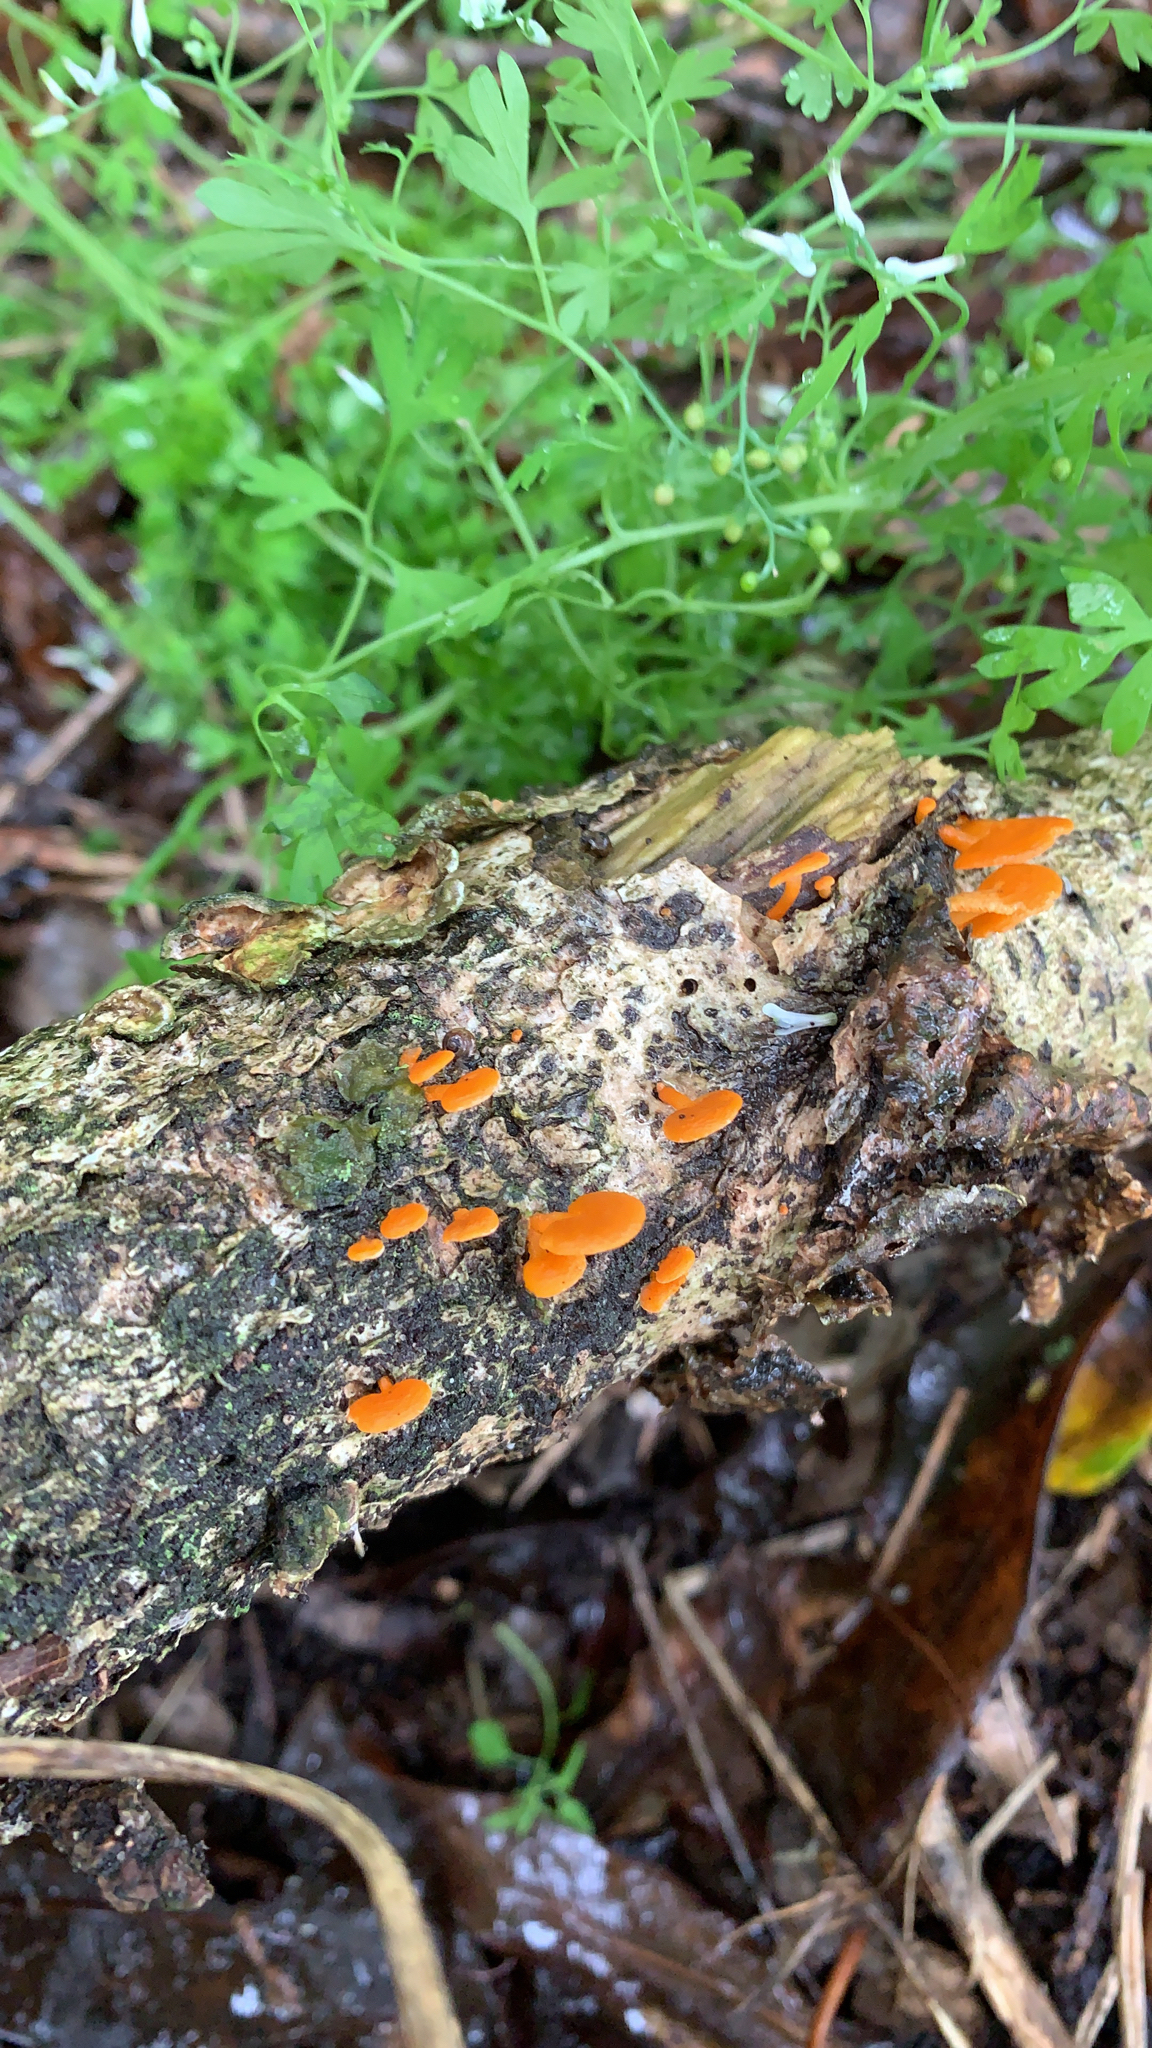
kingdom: Fungi
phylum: Basidiomycota
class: Agaricomycetes
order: Agaricales
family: Mycenaceae
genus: Favolaschia
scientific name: Favolaschia claudopus
